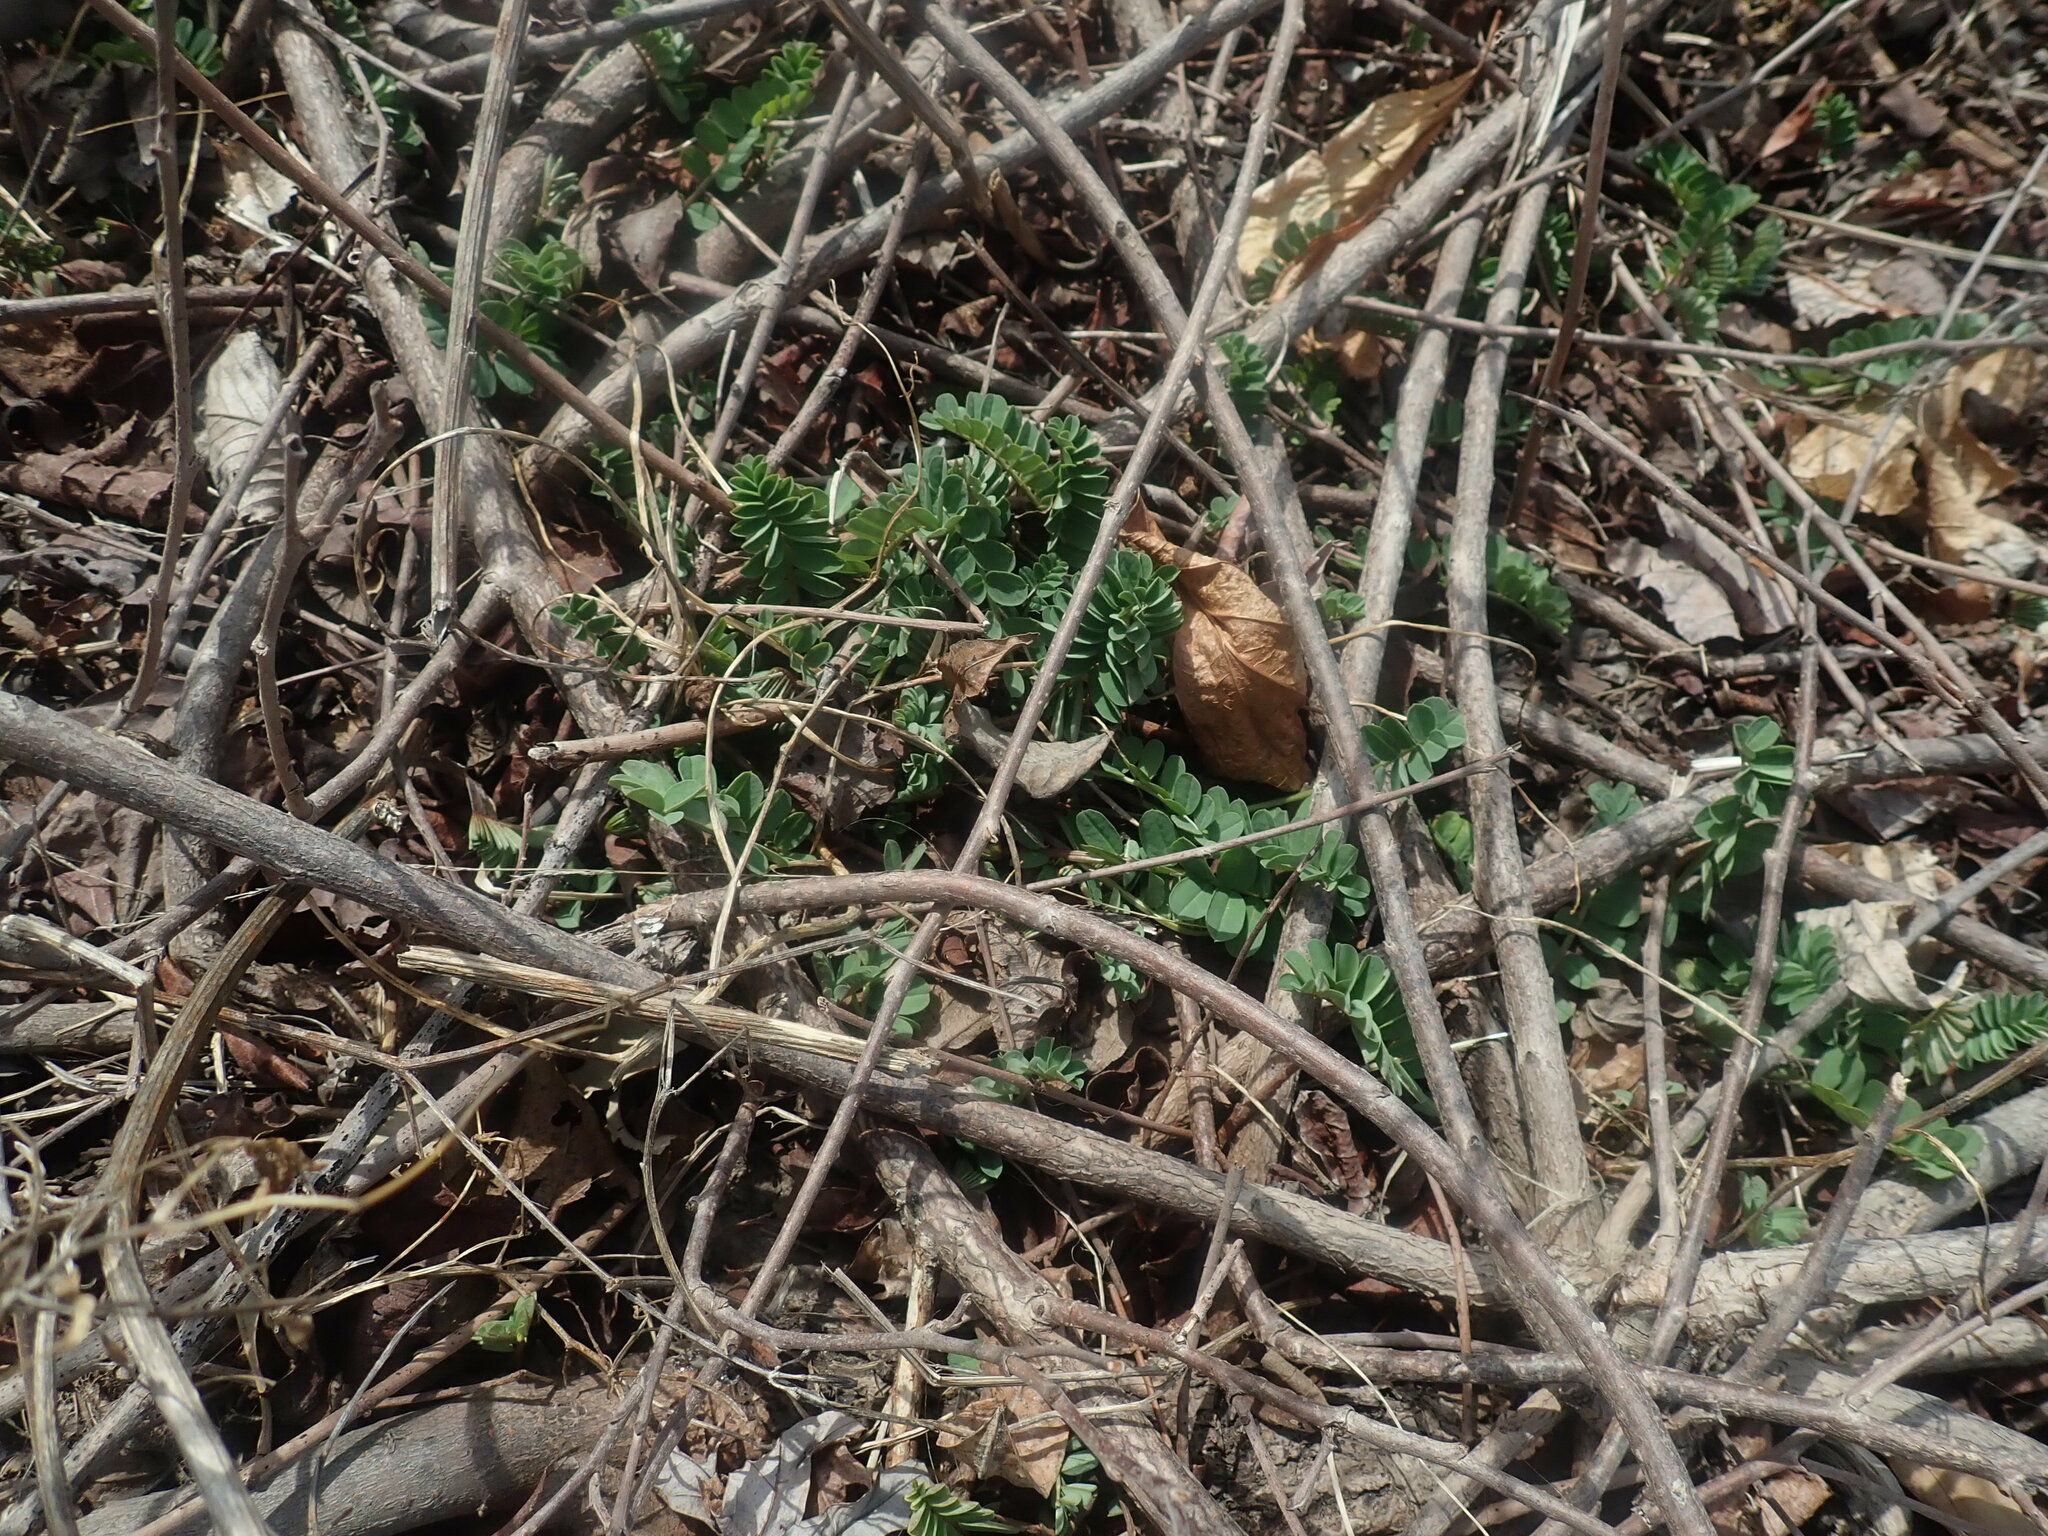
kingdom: Plantae
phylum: Tracheophyta
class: Magnoliopsida
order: Fabales
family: Fabaceae
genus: Coronilla
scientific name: Coronilla varia
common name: Crownvetch
